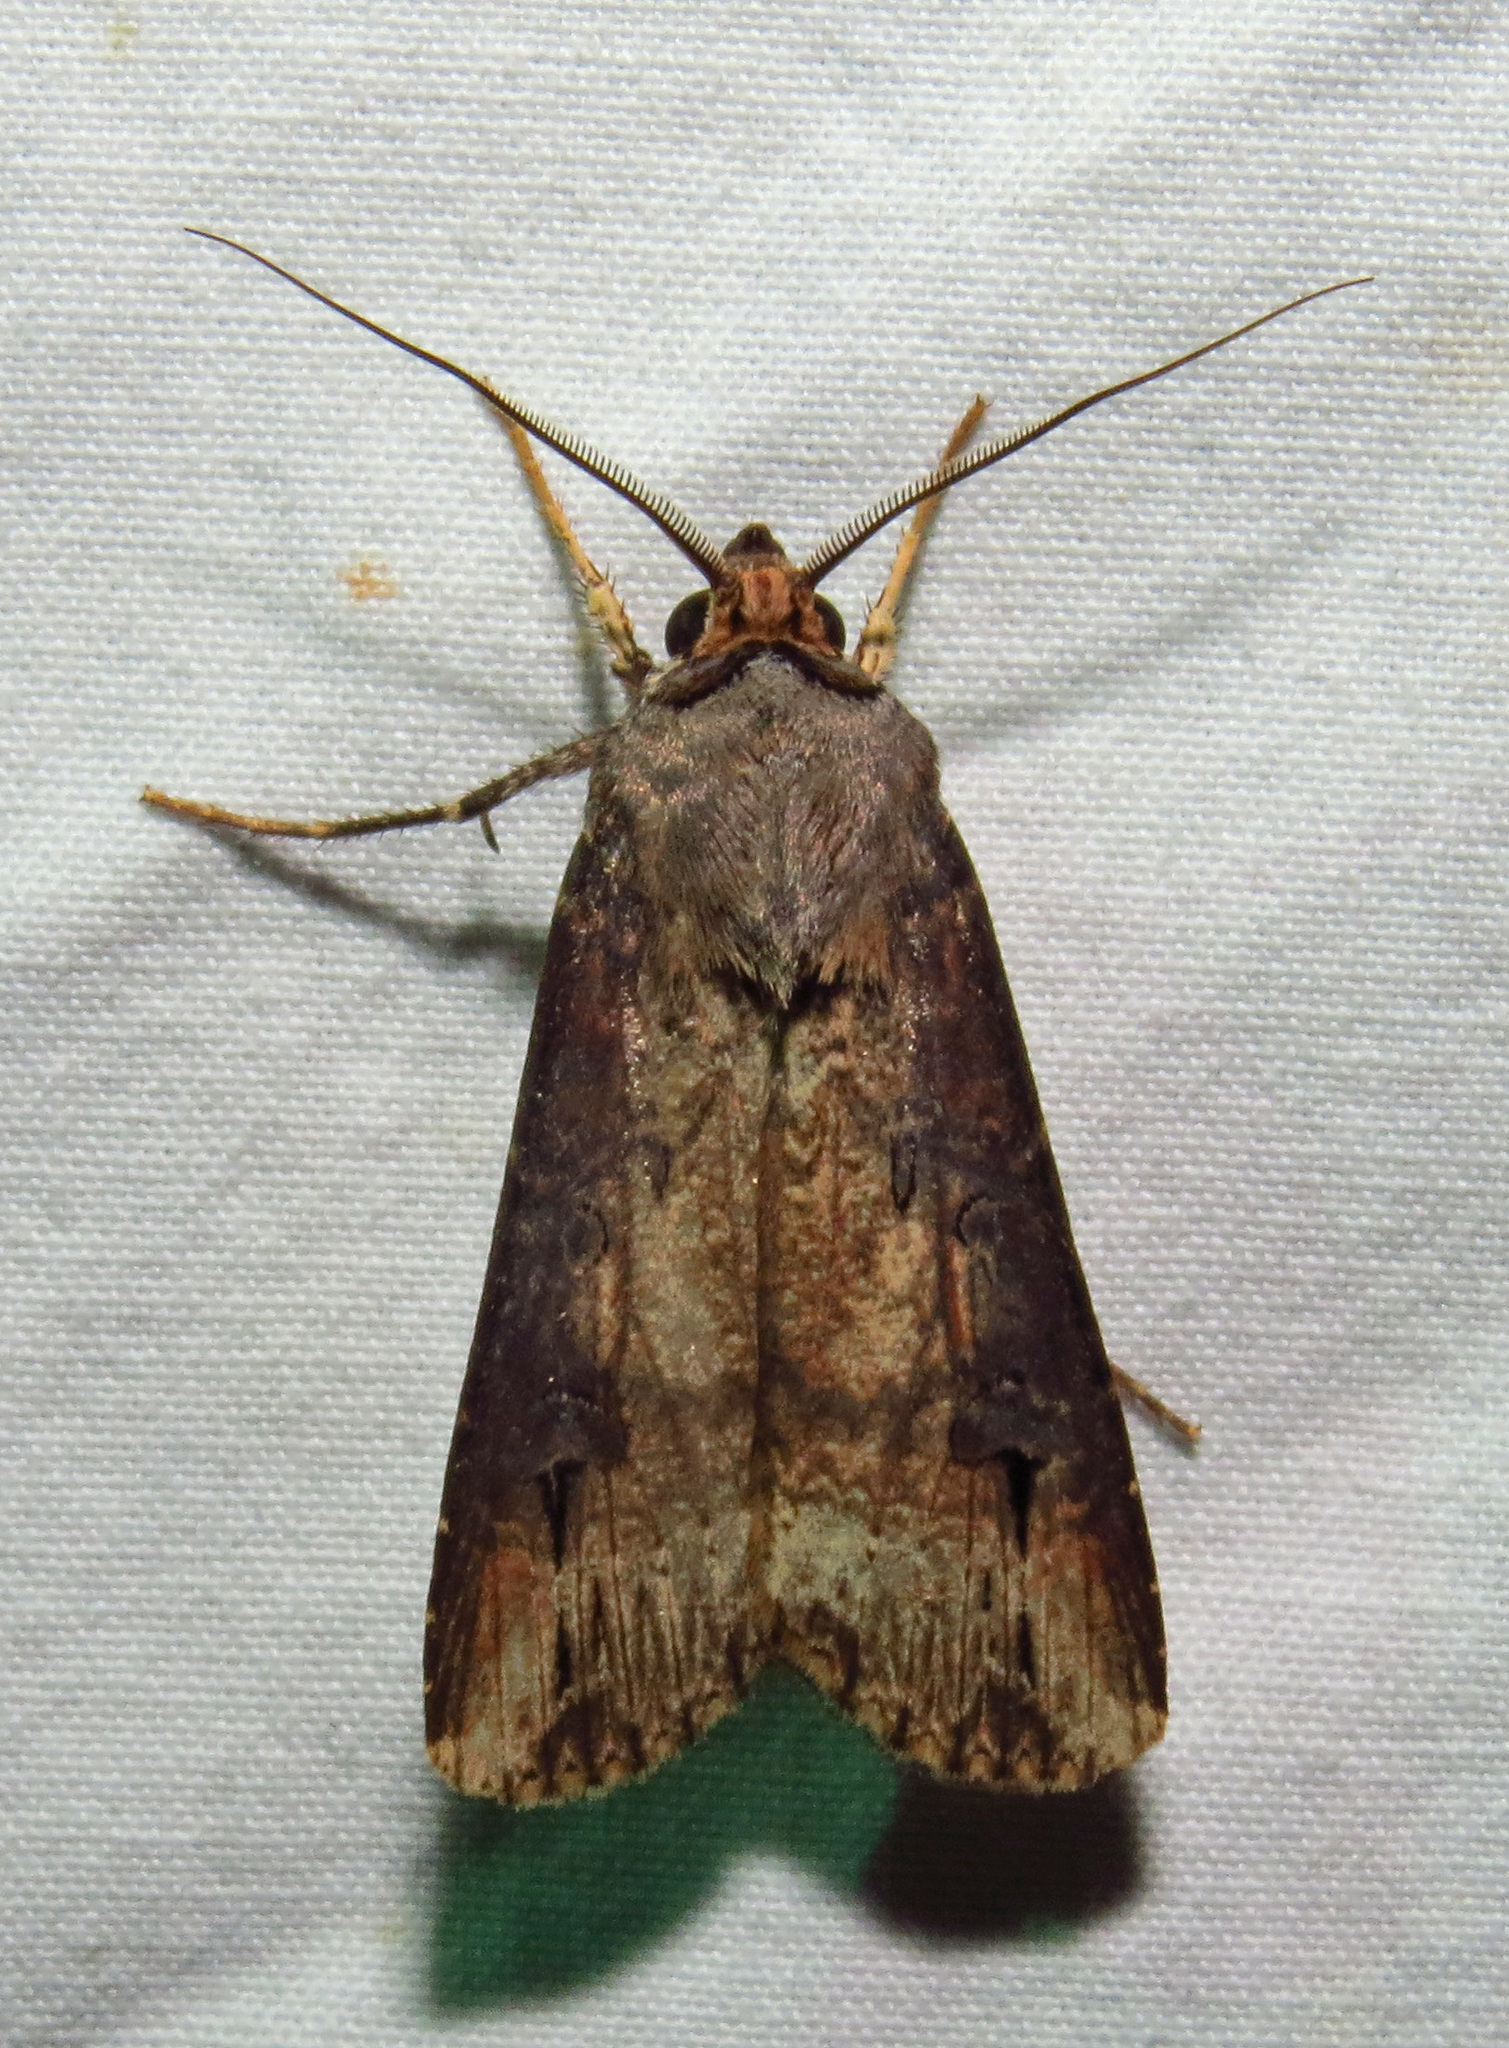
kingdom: Animalia
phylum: Arthropoda
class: Insecta
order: Lepidoptera
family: Noctuidae
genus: Agrotis
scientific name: Agrotis ipsilon
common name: Dark sword-grass
